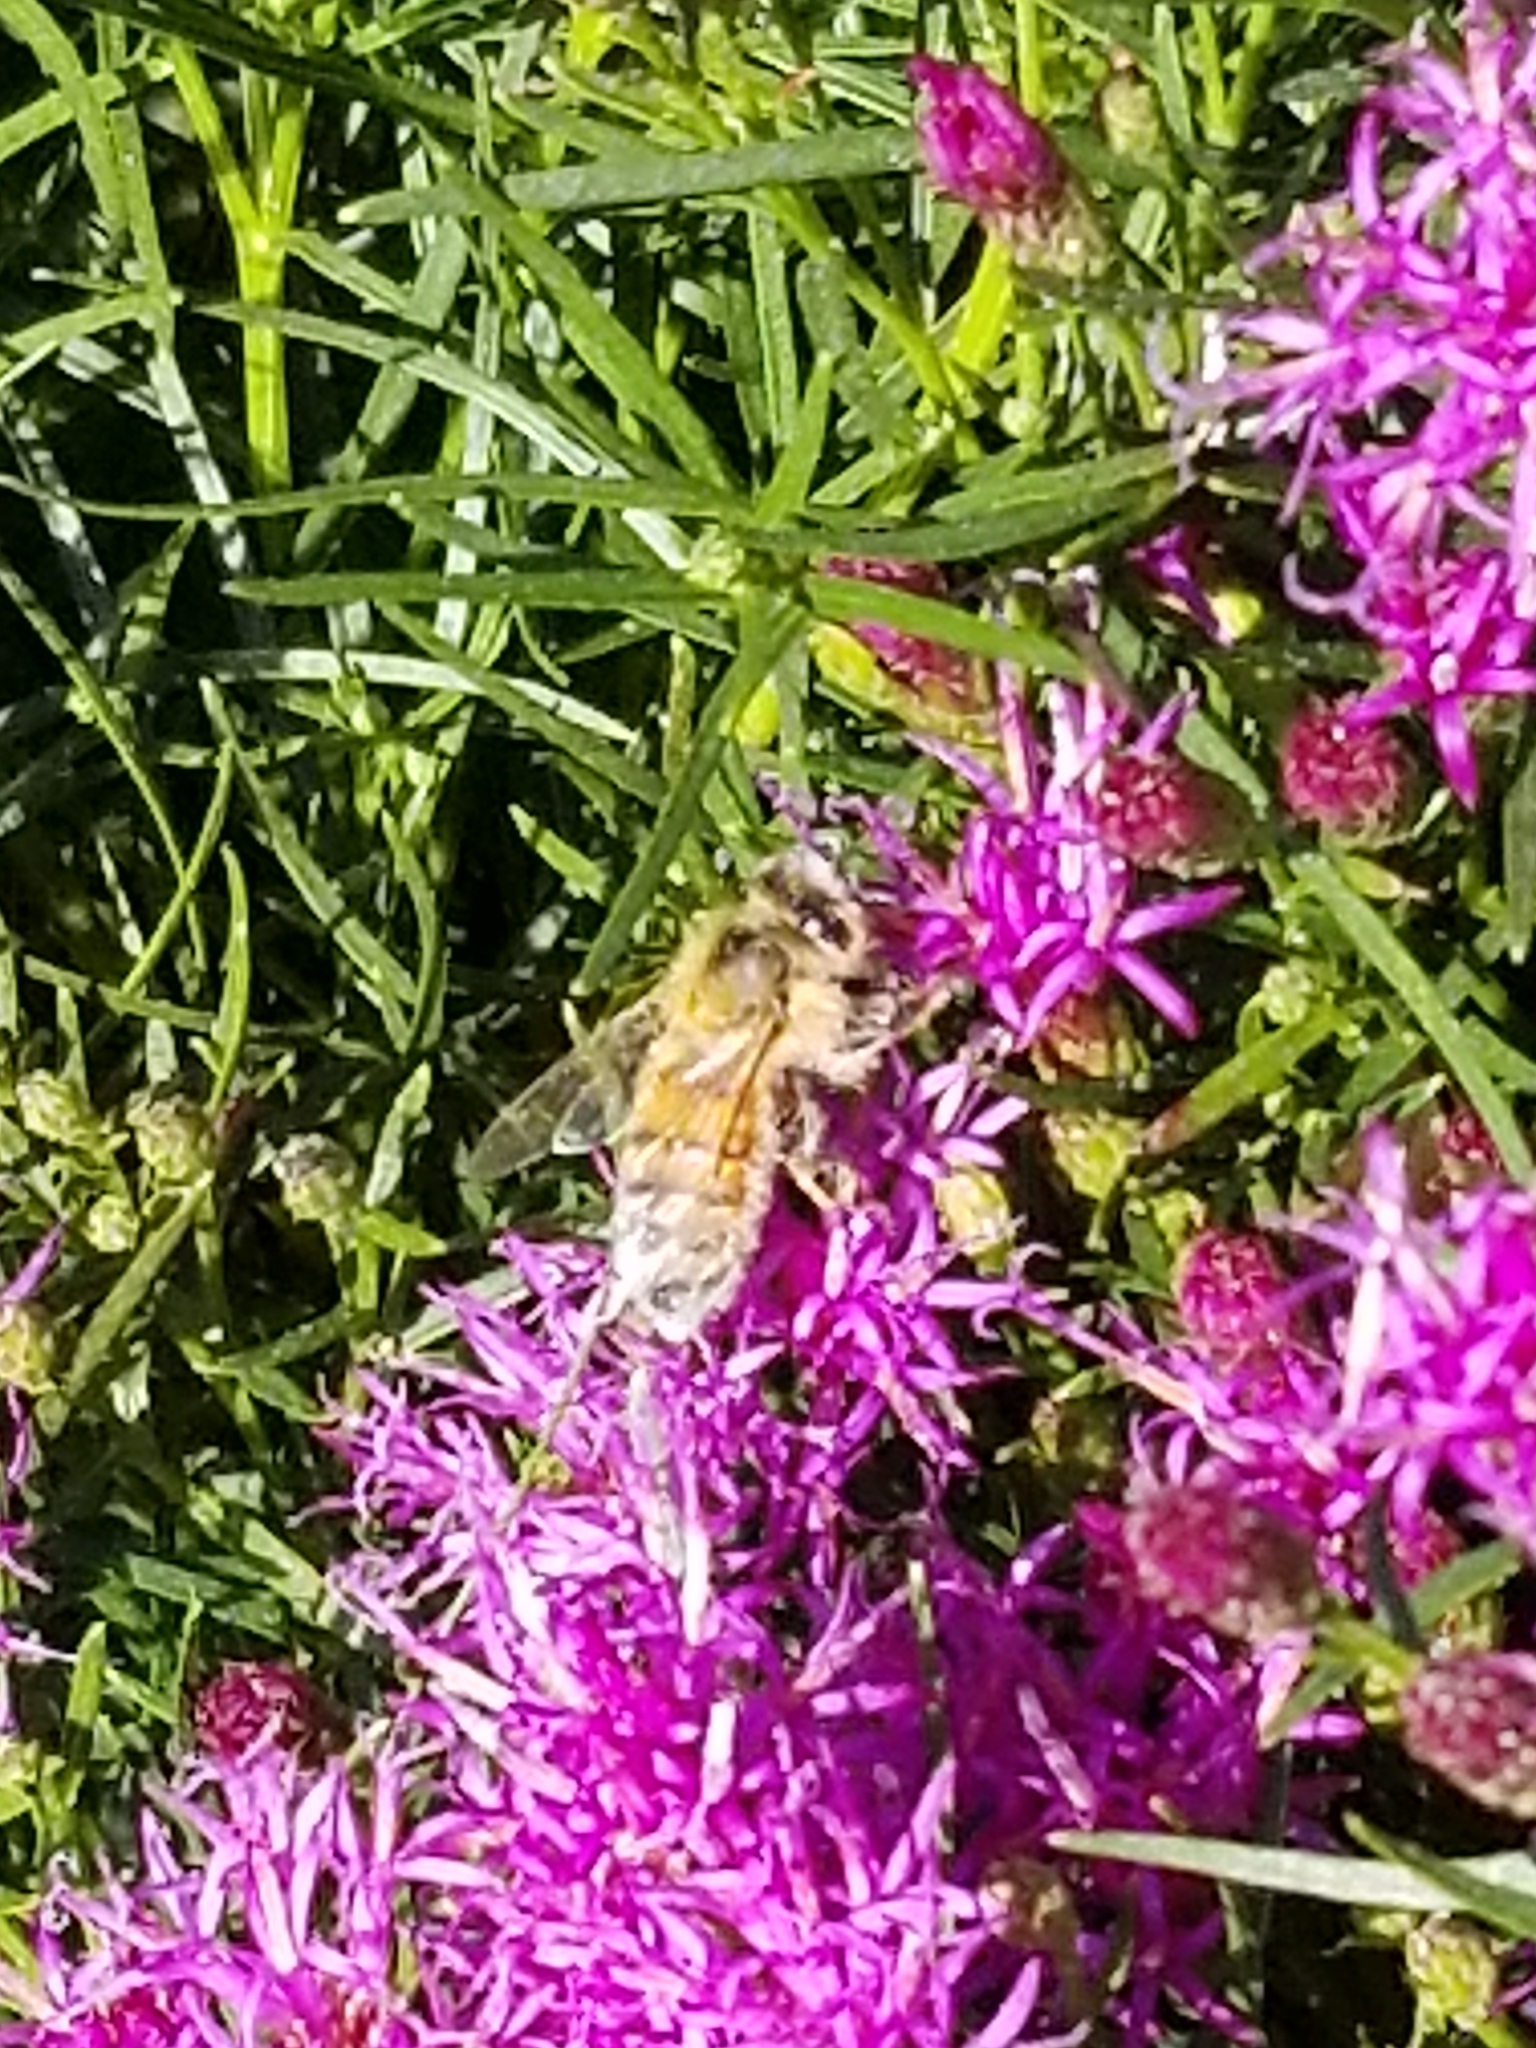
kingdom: Animalia
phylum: Arthropoda
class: Insecta
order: Hymenoptera
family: Apidae
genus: Apis
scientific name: Apis mellifera
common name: Honey bee
